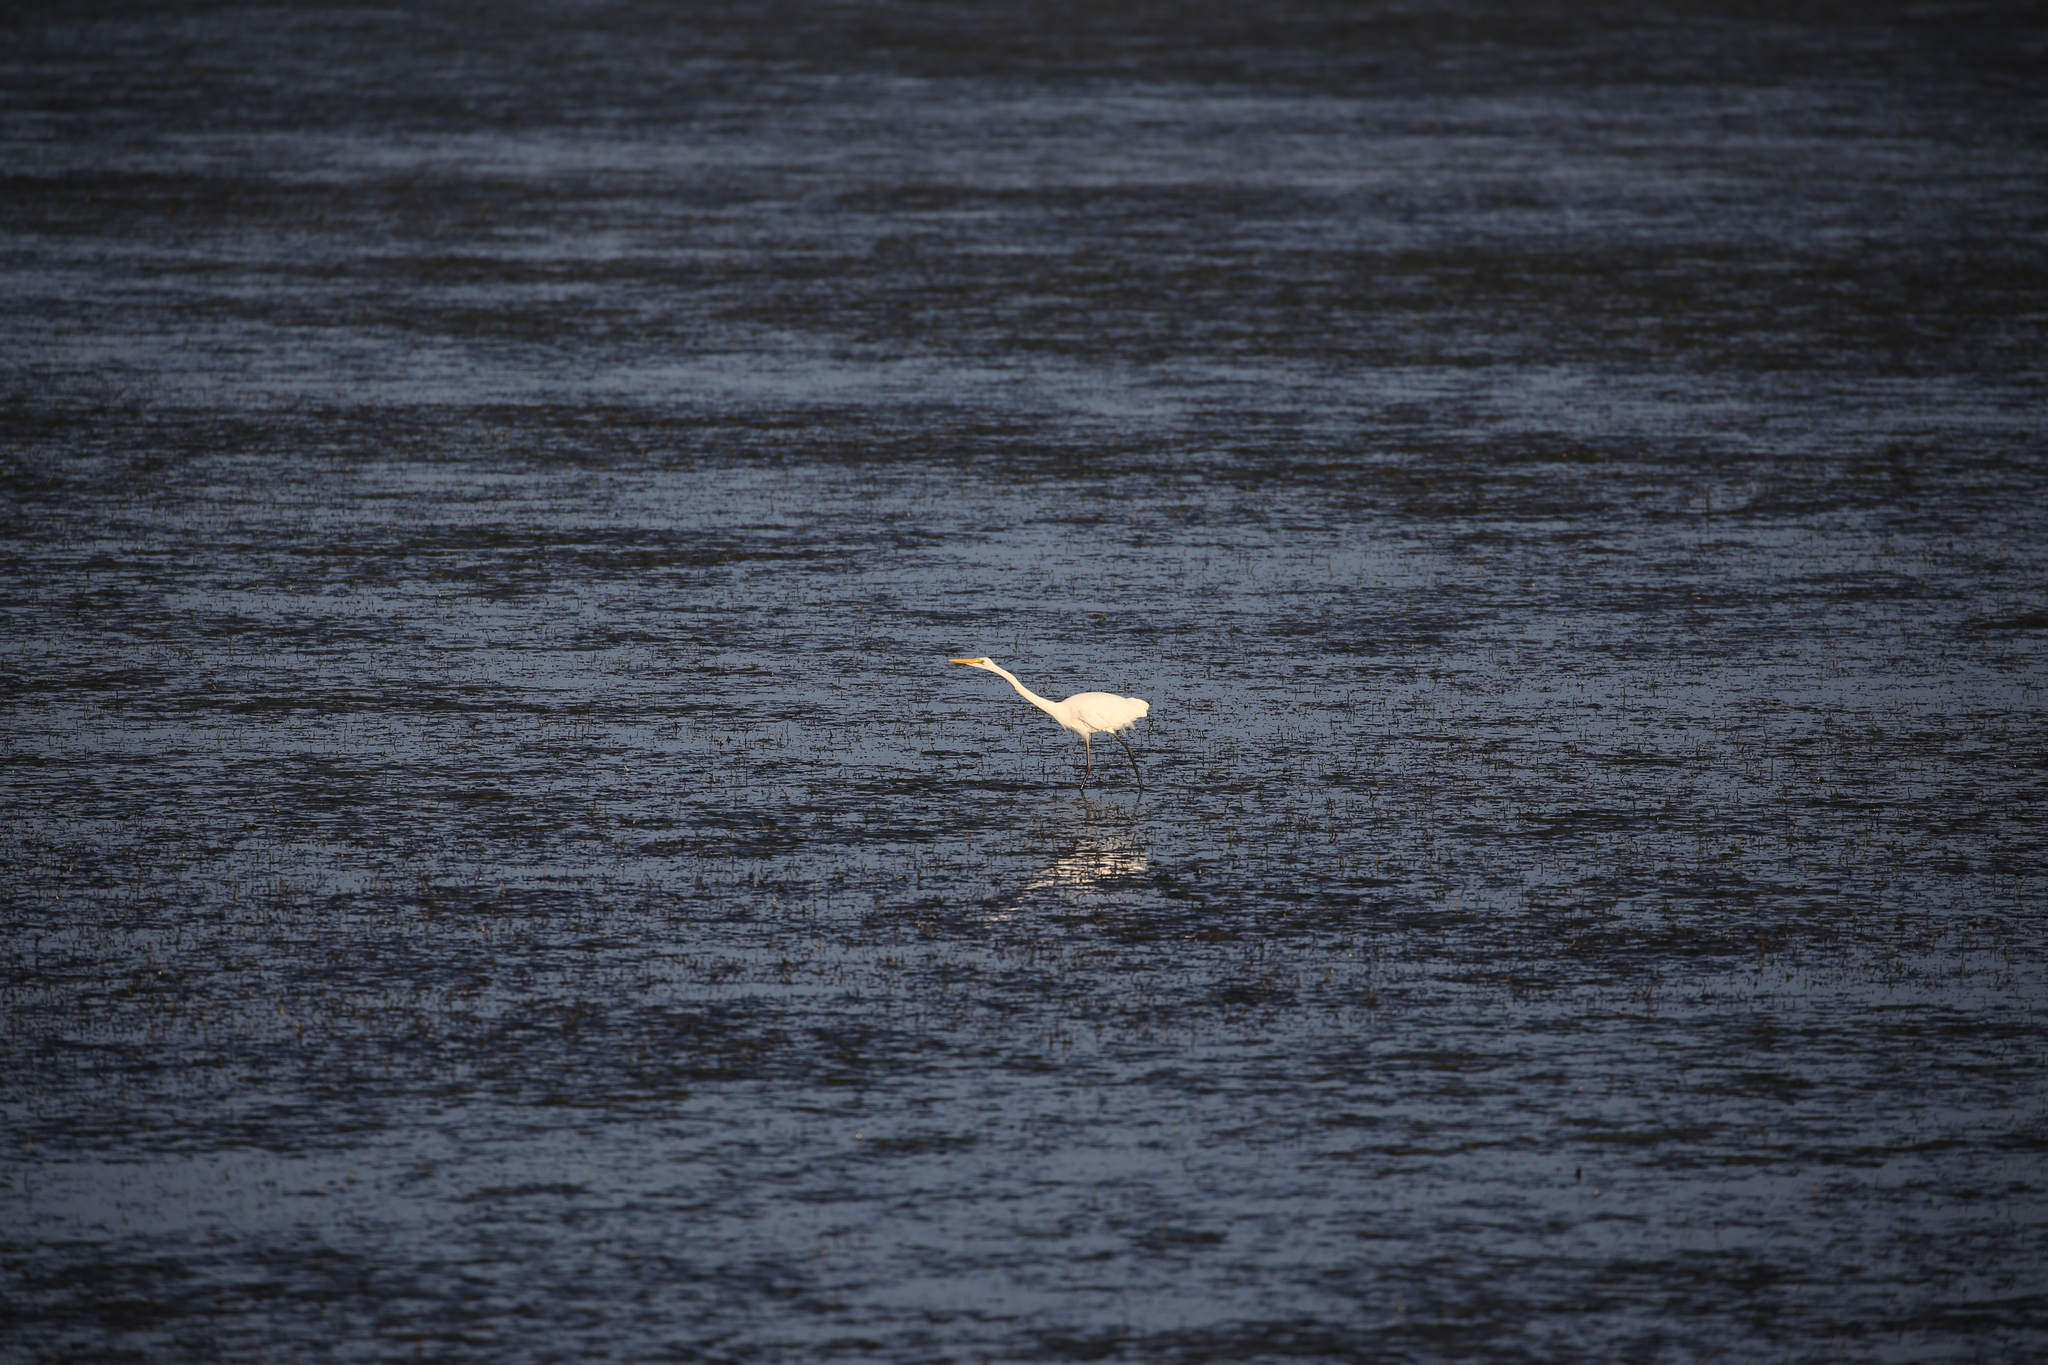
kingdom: Animalia
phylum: Chordata
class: Aves
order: Pelecaniformes
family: Ardeidae
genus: Ardea
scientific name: Ardea alba
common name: Great egret
